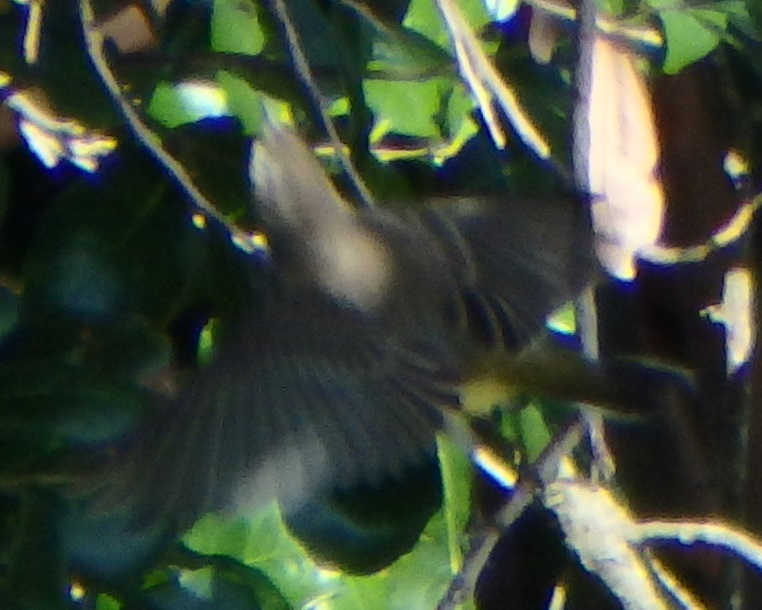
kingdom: Animalia
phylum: Chordata
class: Aves
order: Passeriformes
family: Parulidae
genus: Setophaga
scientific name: Setophaga palmarum
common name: Palm warbler
